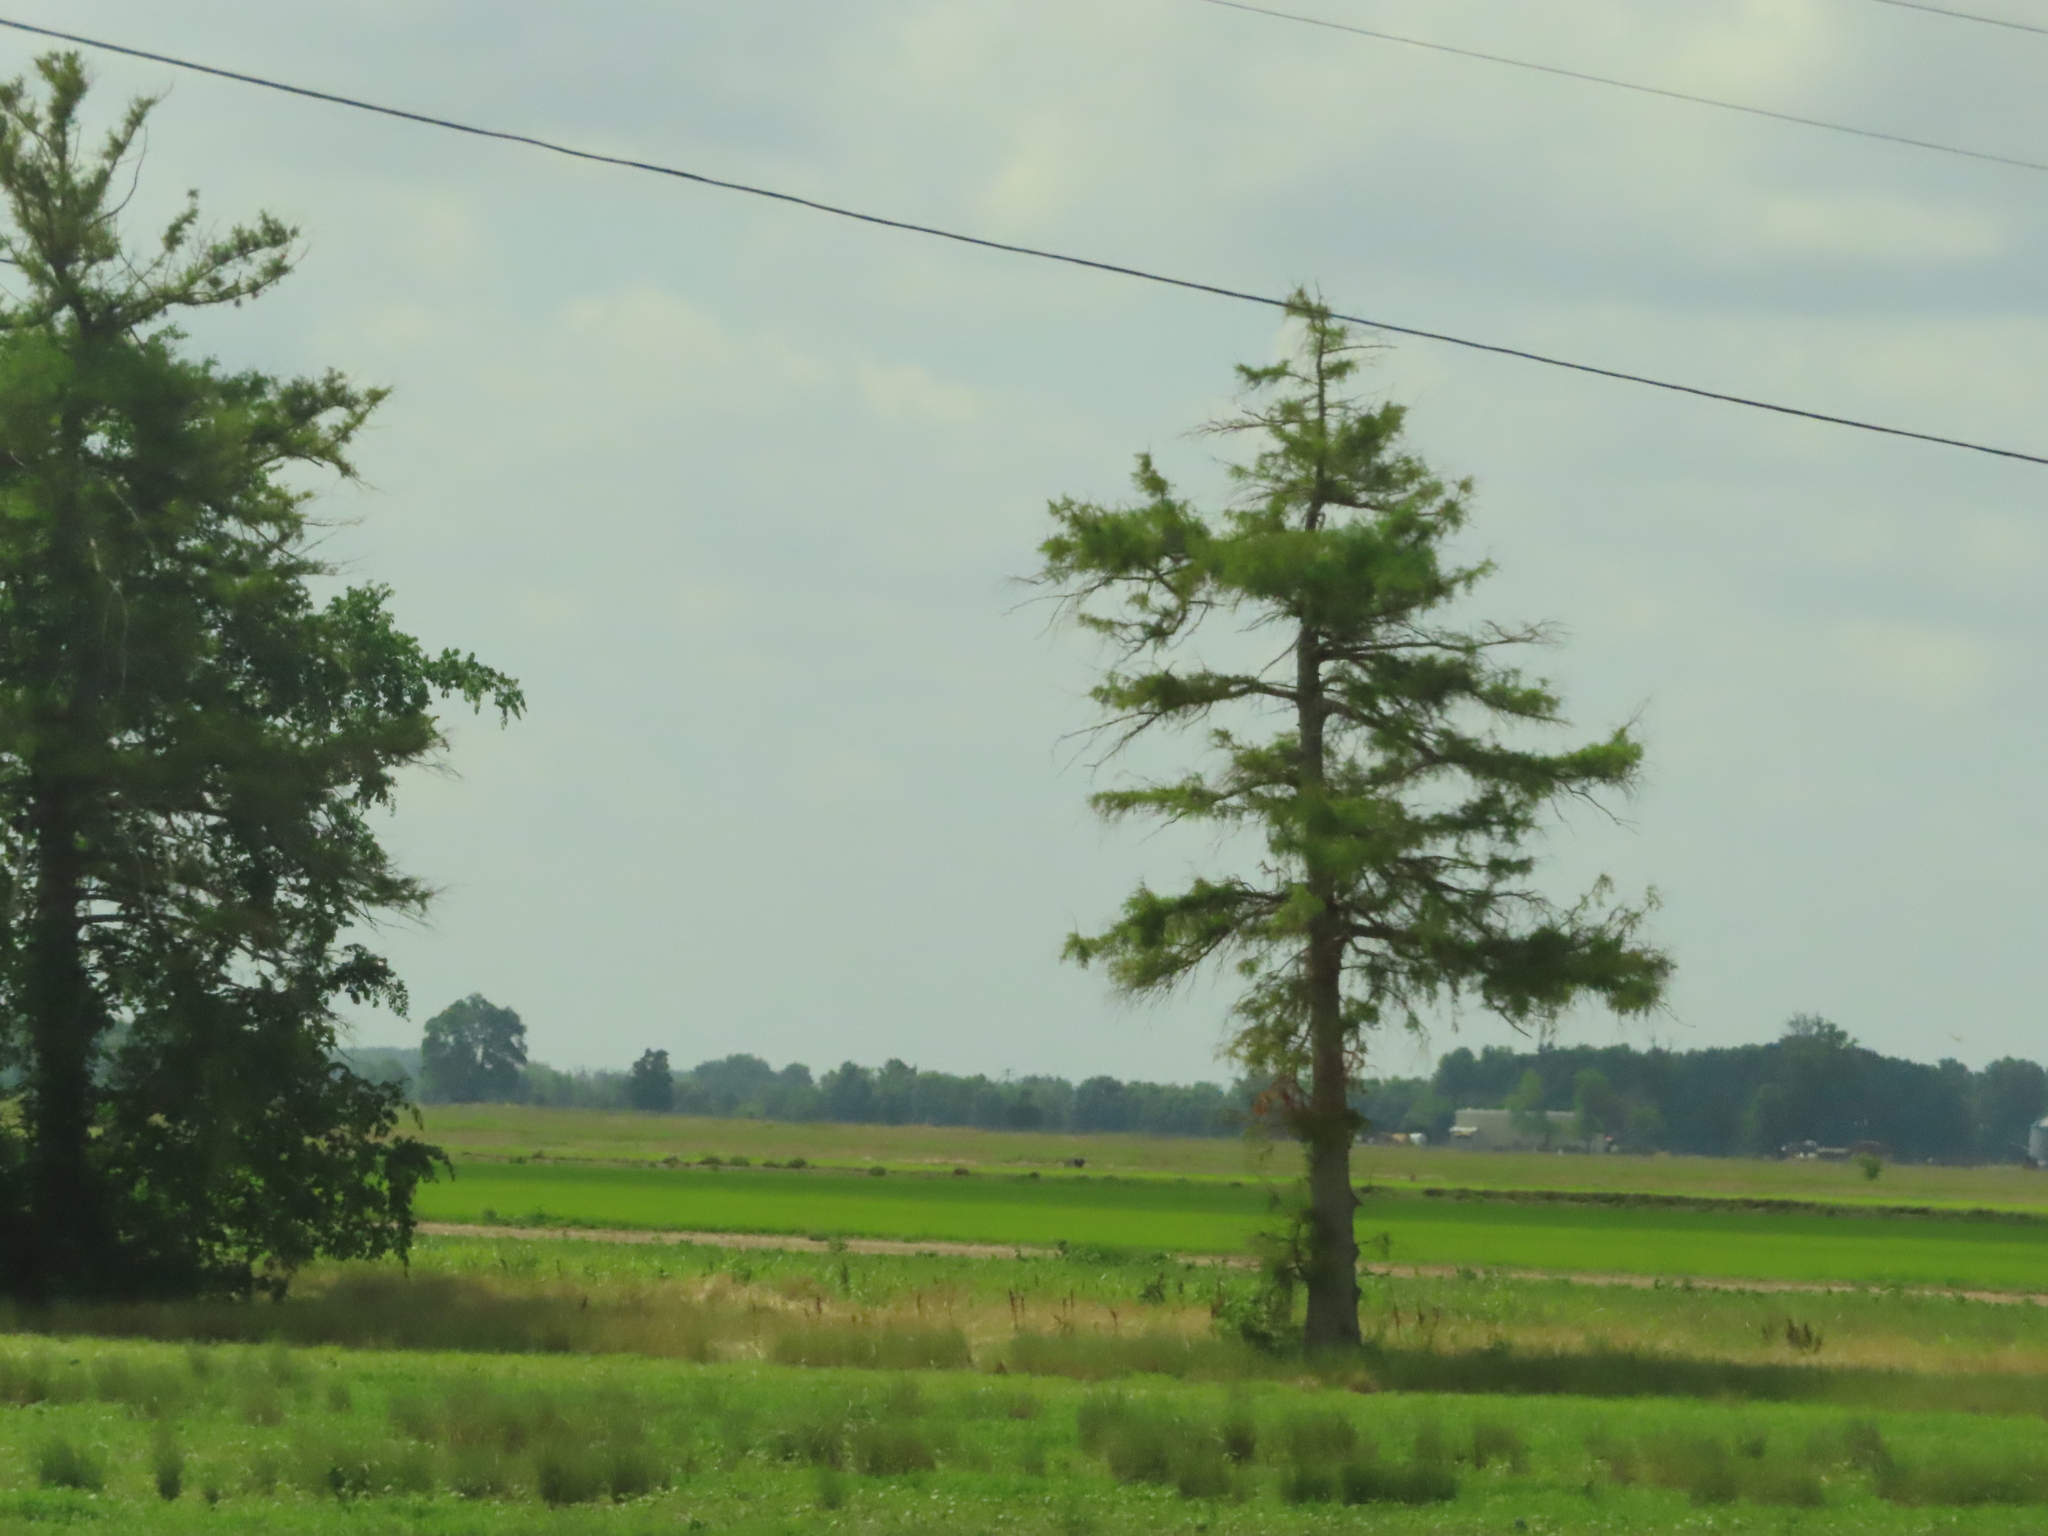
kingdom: Plantae
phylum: Tracheophyta
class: Pinopsida
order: Pinales
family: Cupressaceae
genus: Taxodium
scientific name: Taxodium distichum
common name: Bald cypress
